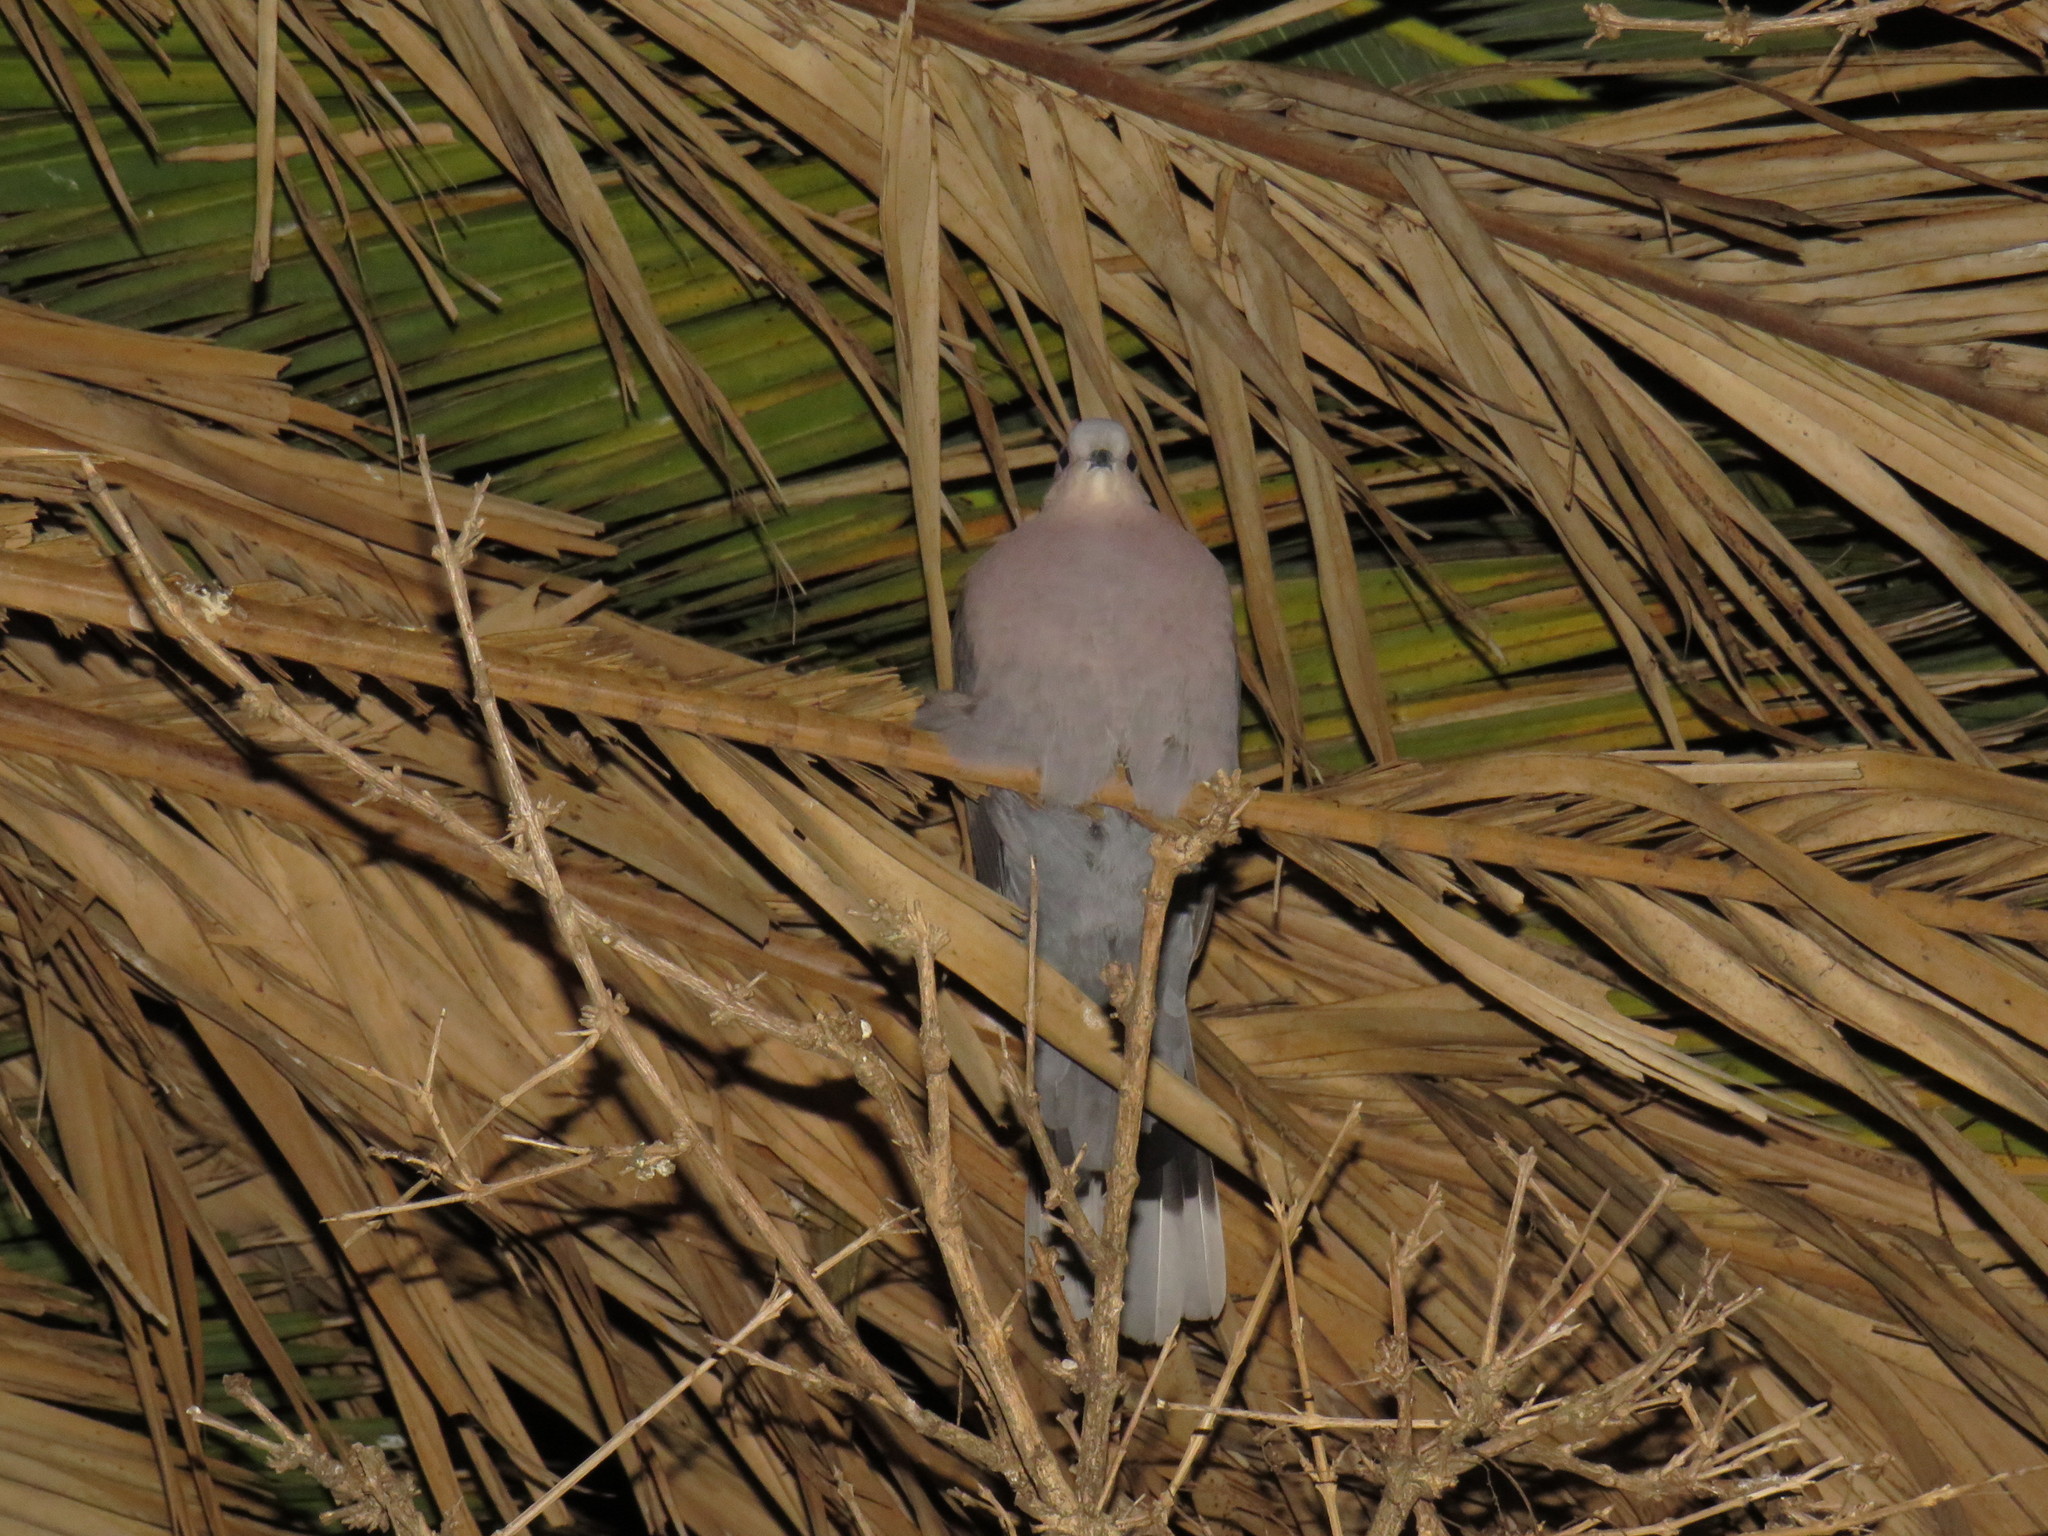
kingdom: Animalia
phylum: Chordata
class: Aves
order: Columbiformes
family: Columbidae
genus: Streptopelia
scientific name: Streptopelia semitorquata
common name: Red-eyed dove
